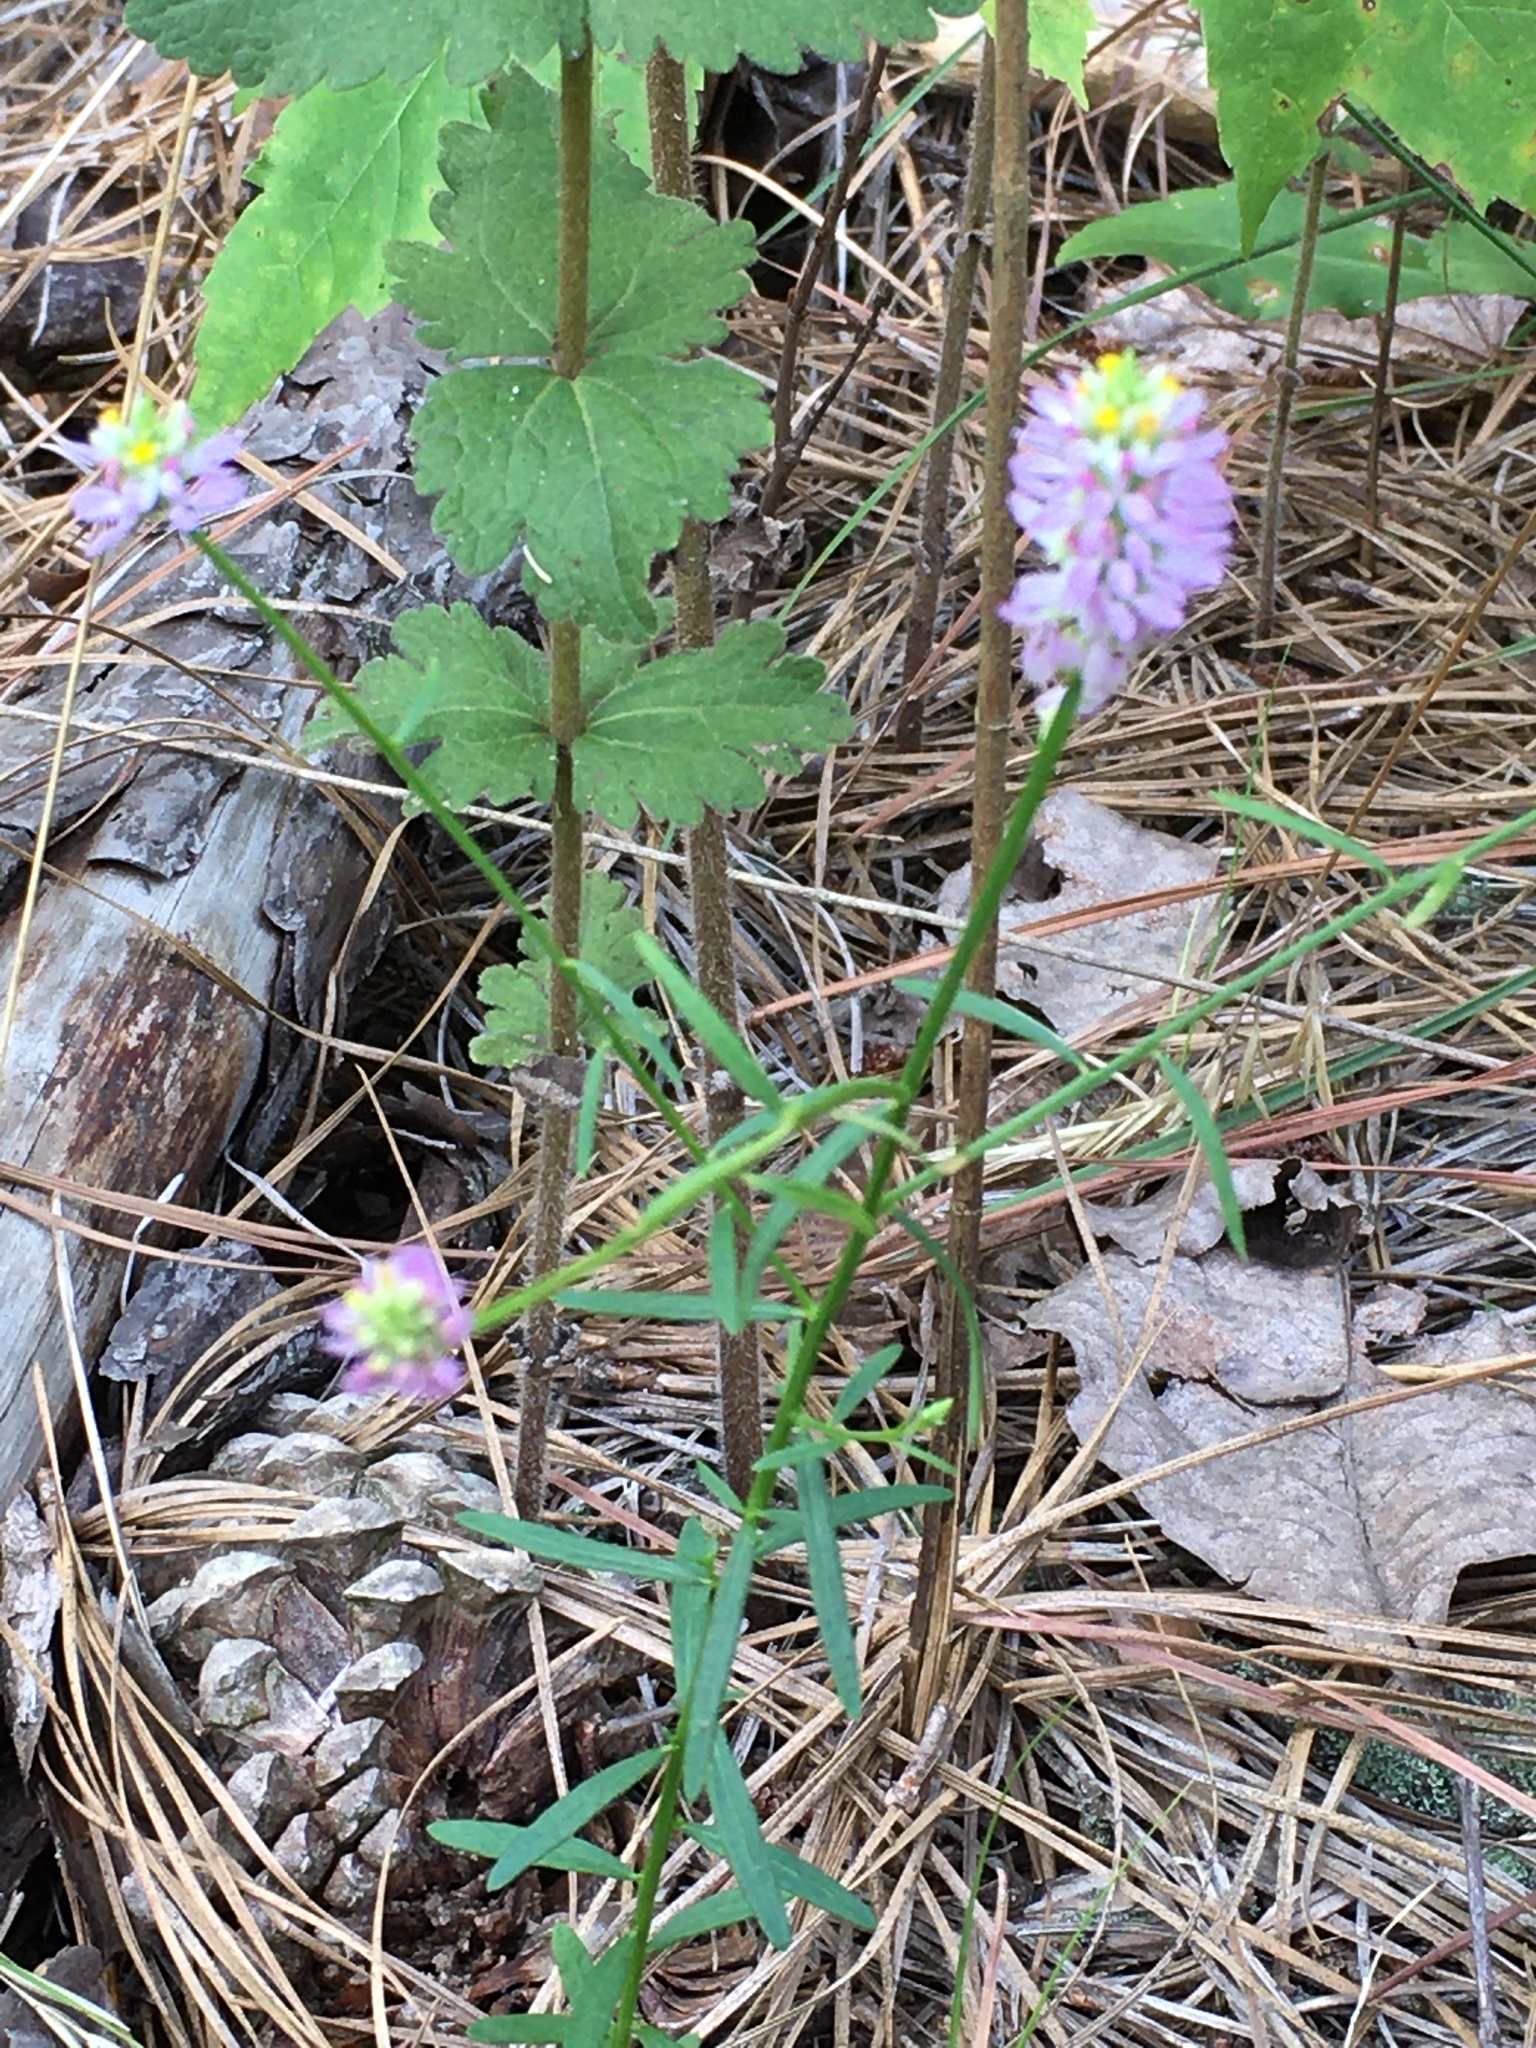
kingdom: Plantae
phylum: Tracheophyta
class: Magnoliopsida
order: Fabales
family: Polygalaceae
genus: Polygala
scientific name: Polygala curtissii
